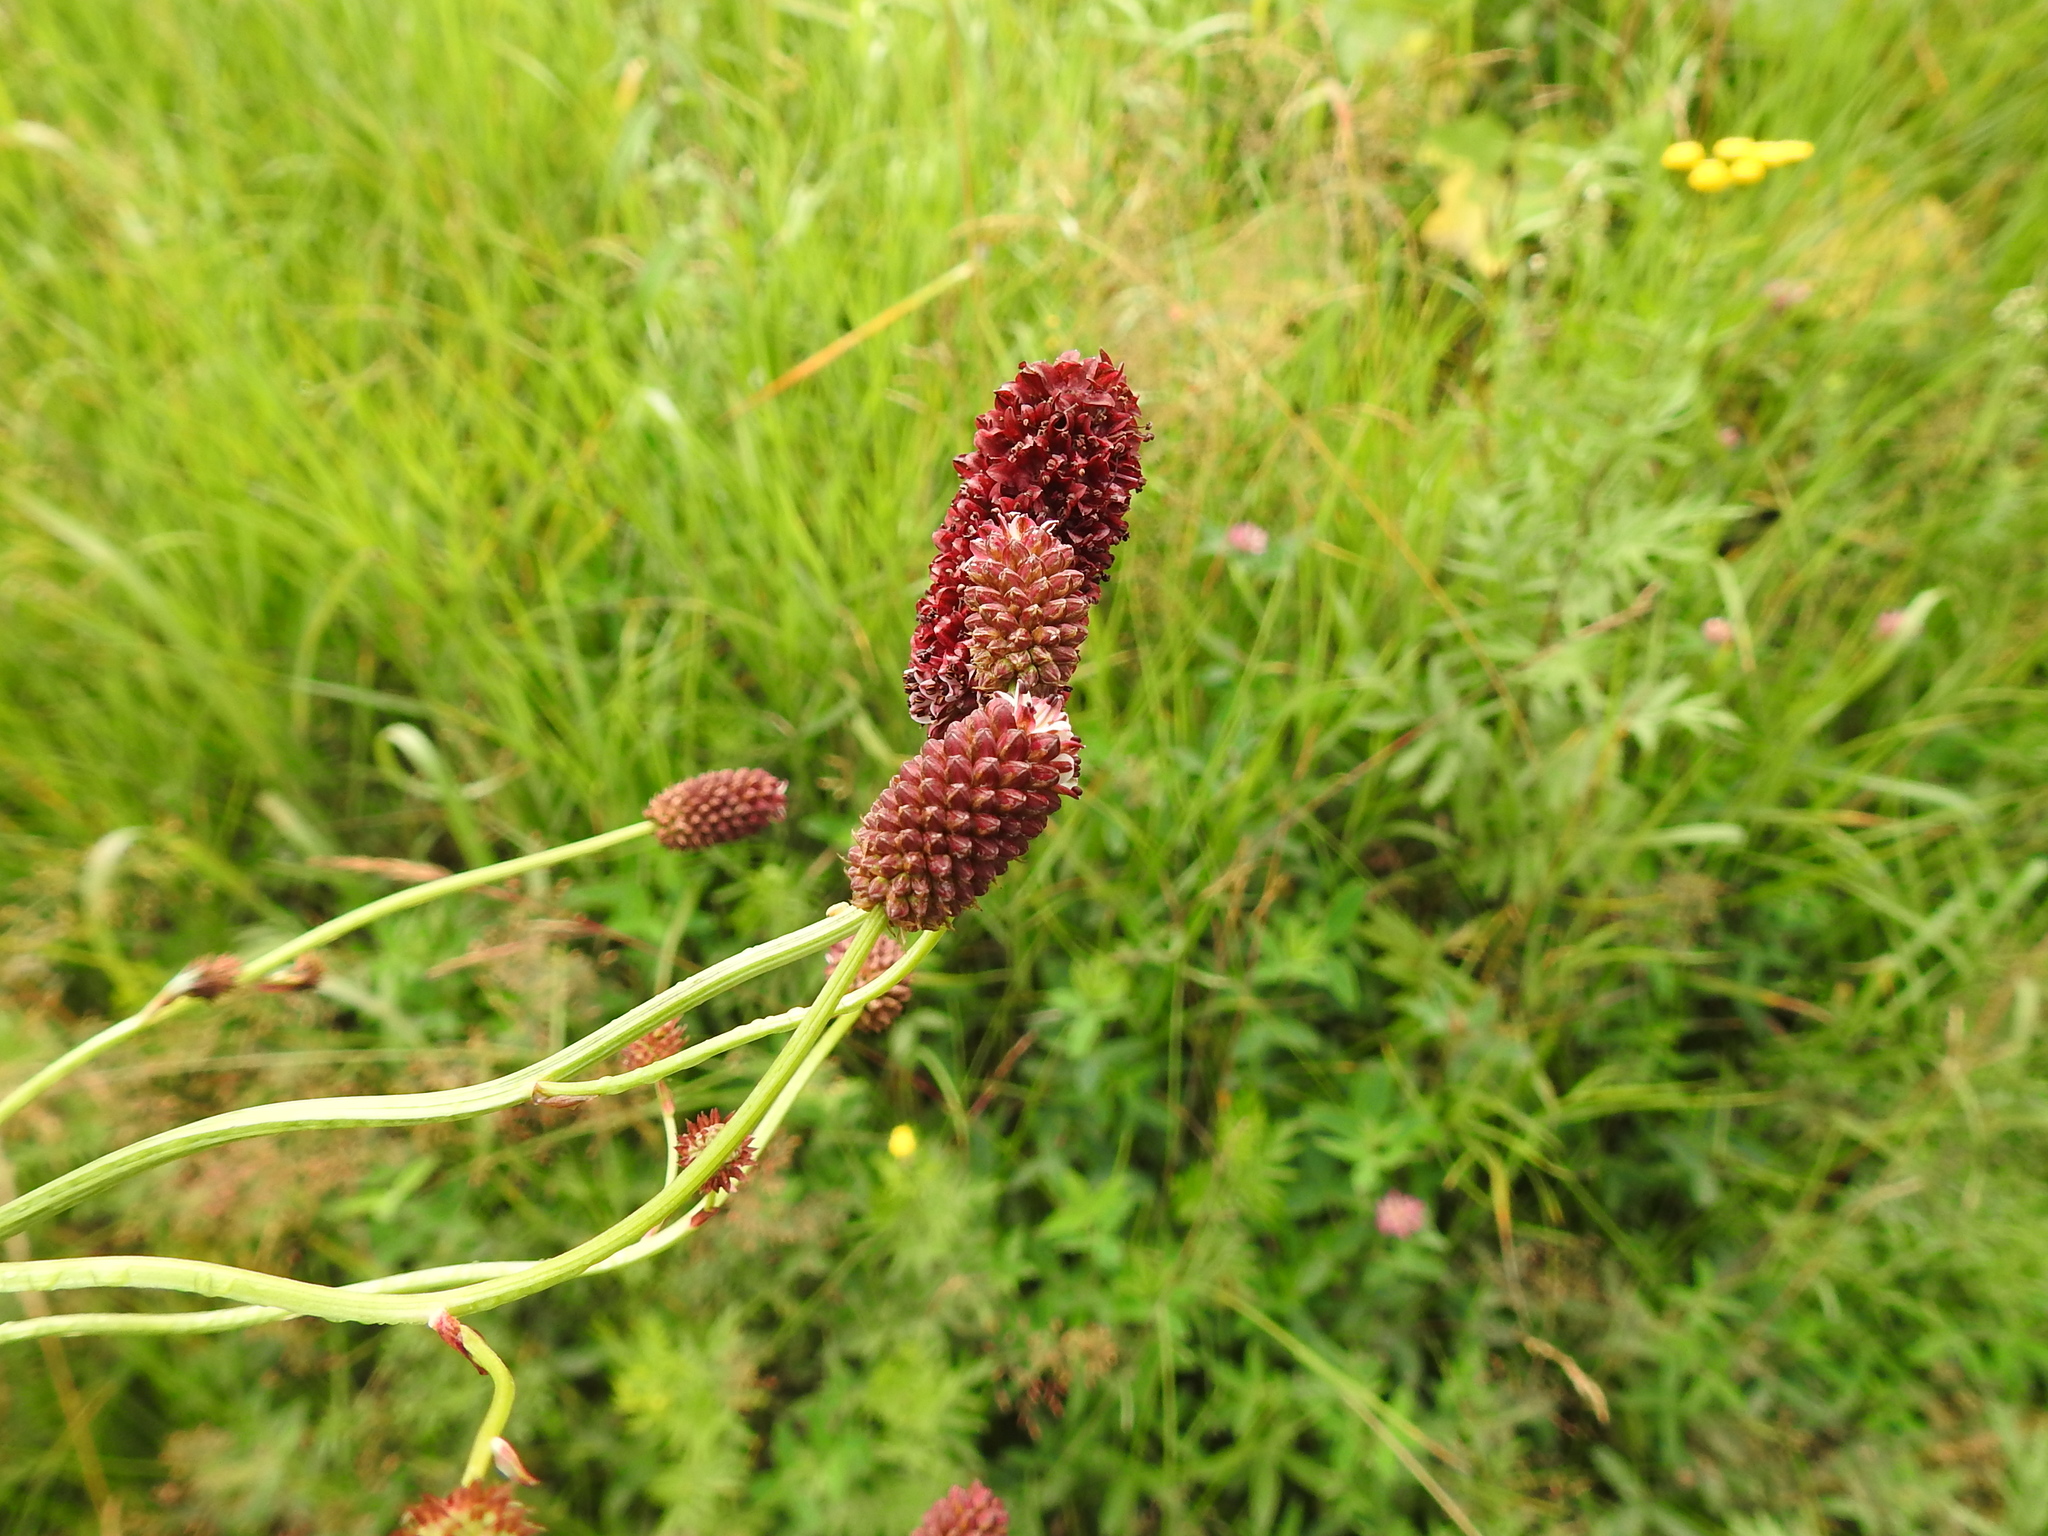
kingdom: Plantae
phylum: Tracheophyta
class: Magnoliopsida
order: Rosales
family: Rosaceae
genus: Sanguisorba
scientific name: Sanguisorba officinalis
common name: Great burnet
